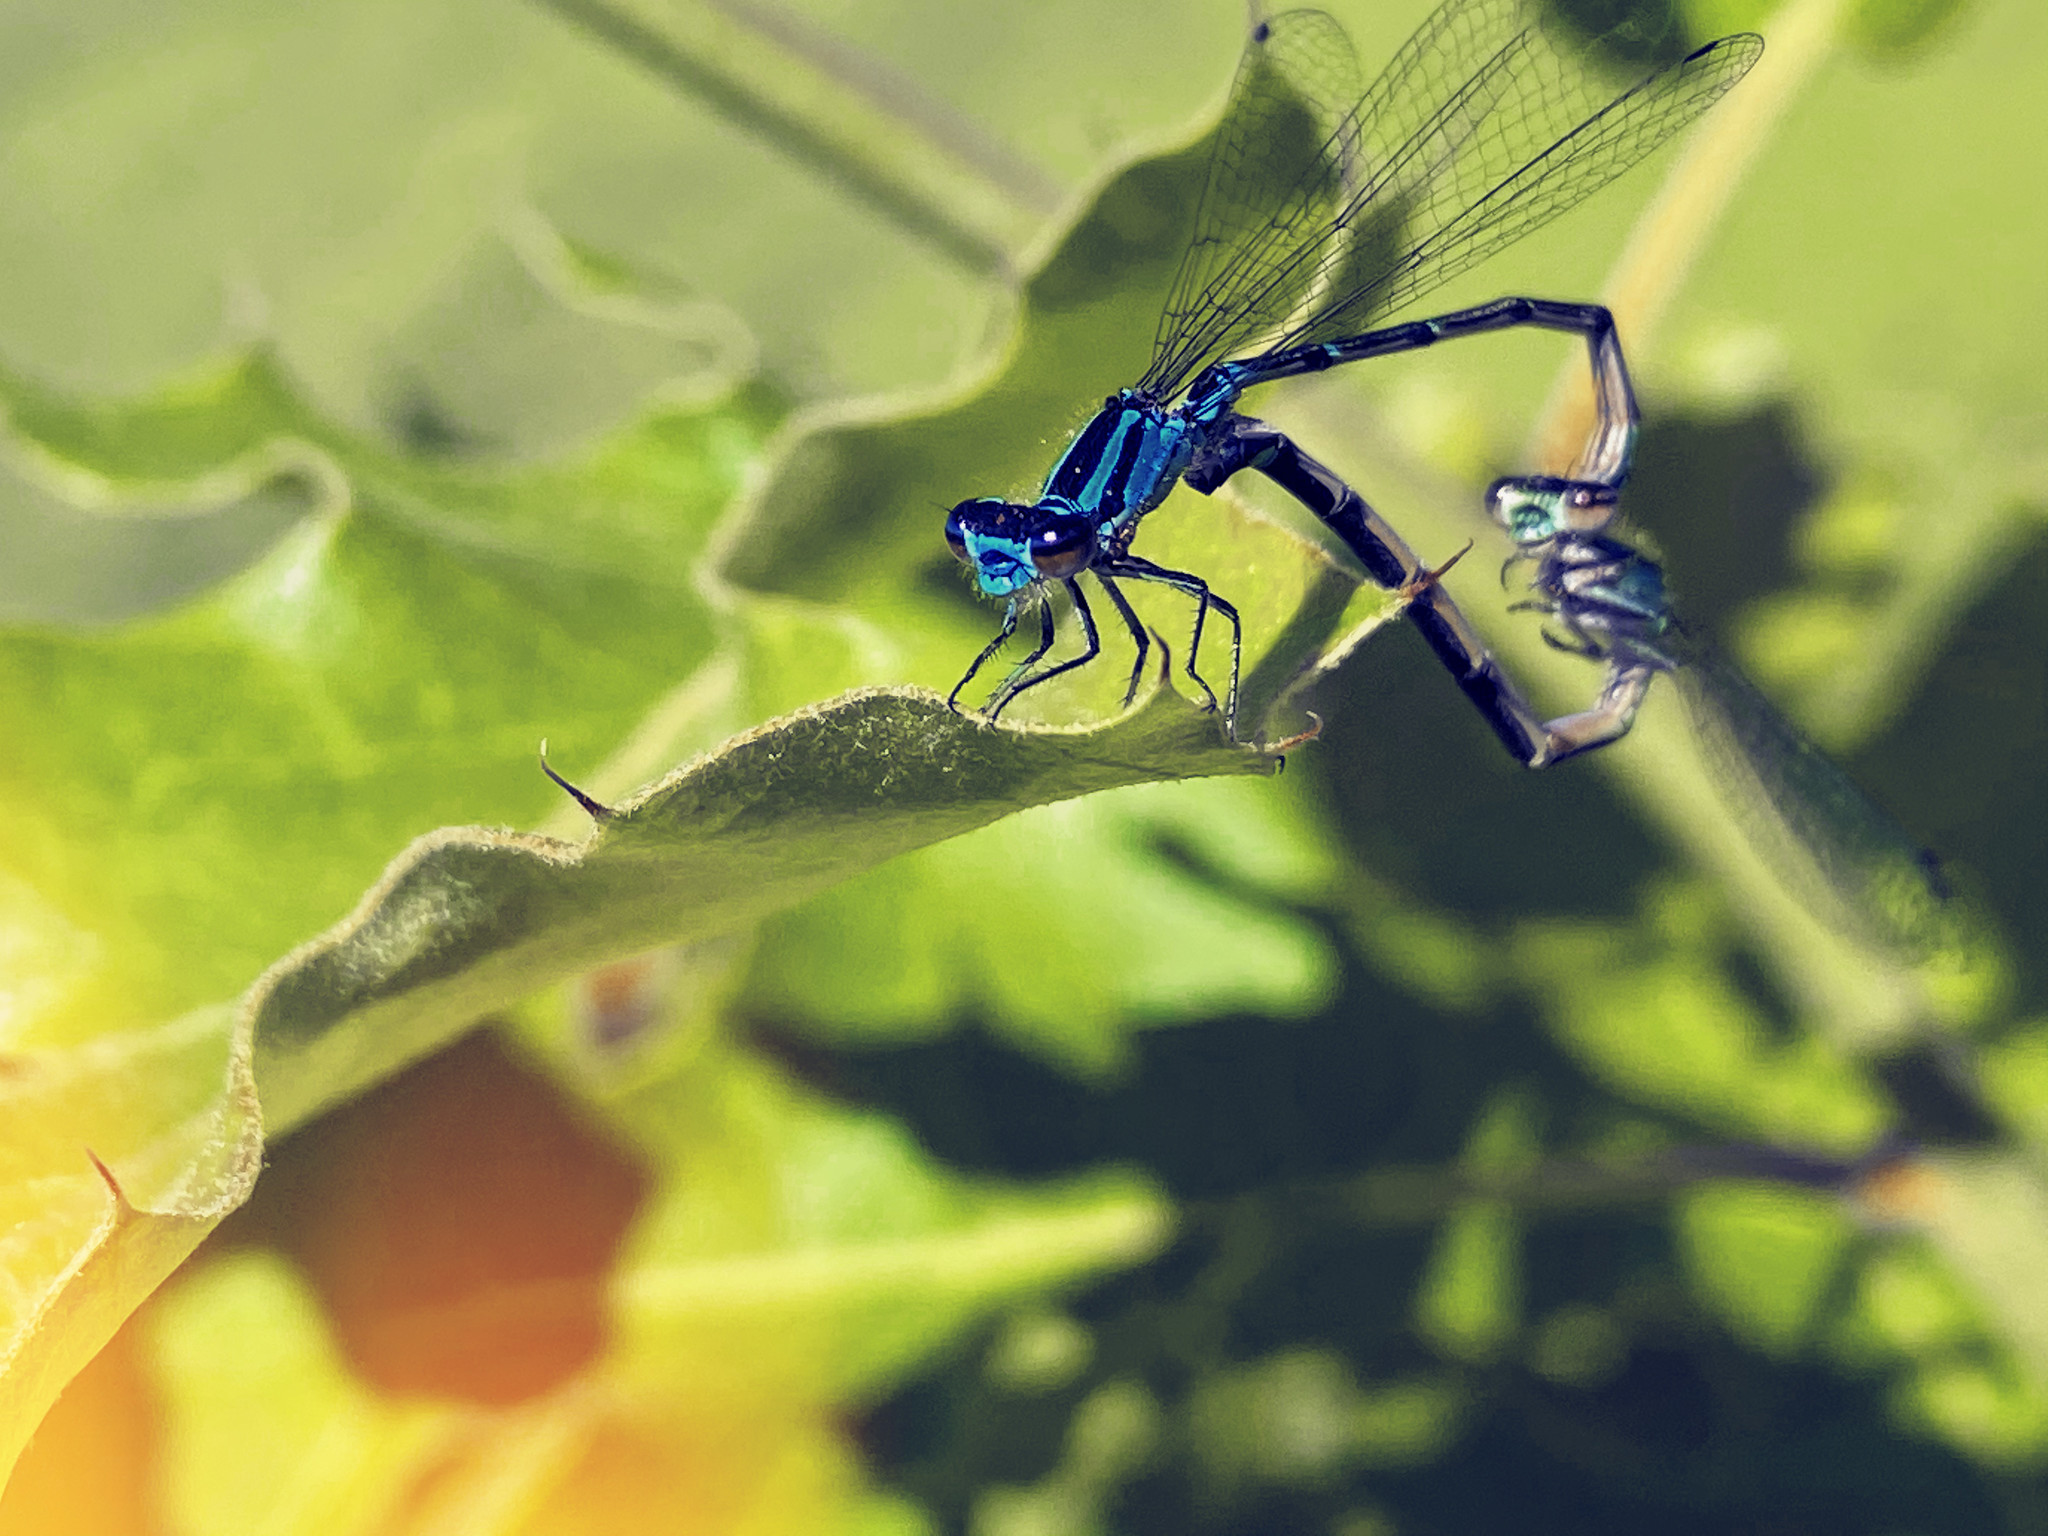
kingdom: Animalia
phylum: Arthropoda
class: Insecta
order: Odonata
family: Coenagrionidae
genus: Enallagma
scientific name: Enallagma geminatum
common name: Skimming bluet
